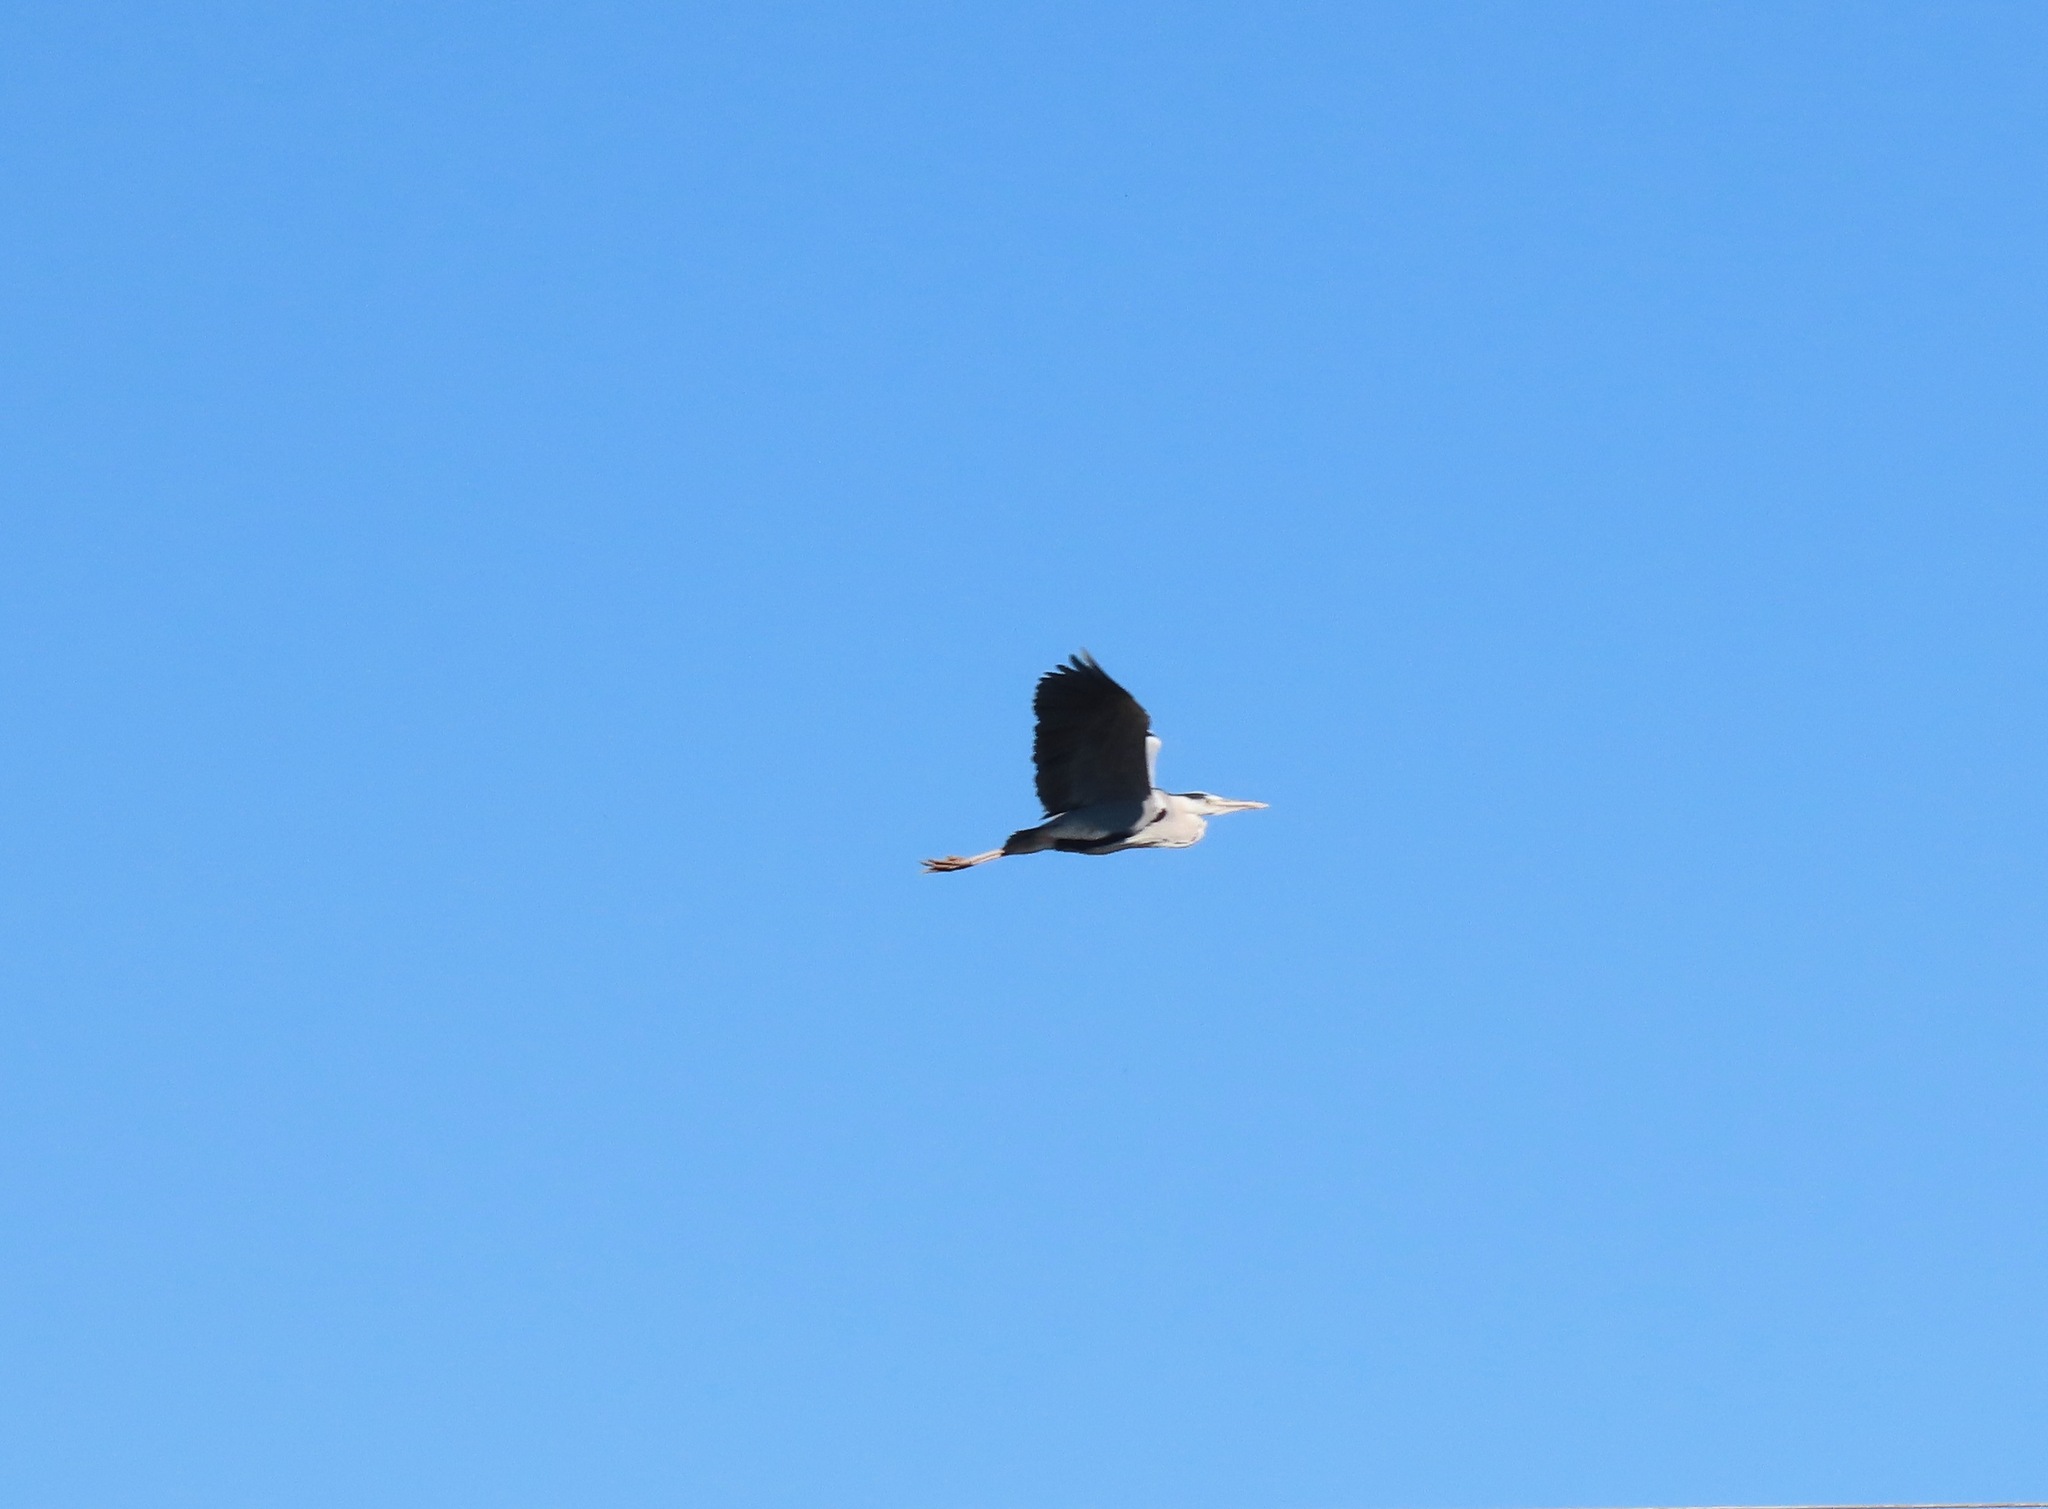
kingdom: Animalia
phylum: Chordata
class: Aves
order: Pelecaniformes
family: Ardeidae
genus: Ardea
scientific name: Ardea cinerea
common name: Grey heron
